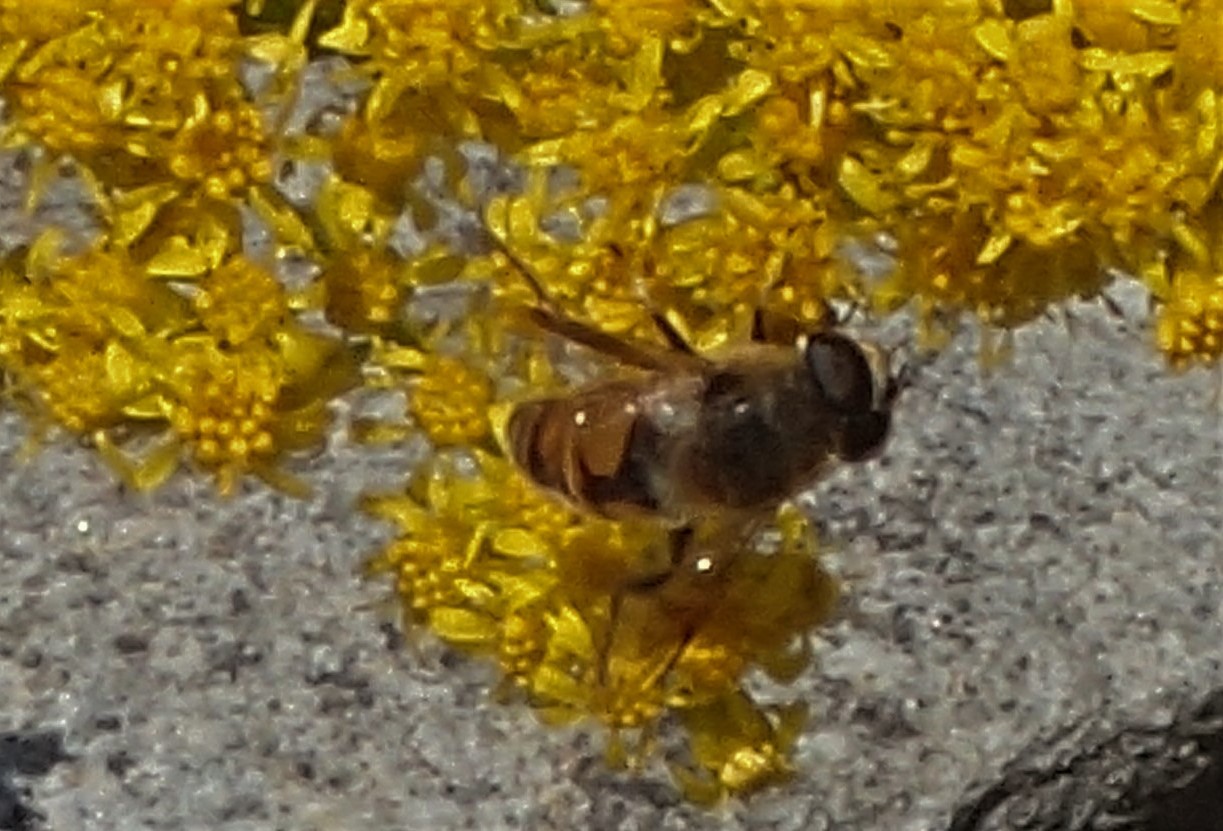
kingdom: Animalia
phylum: Arthropoda
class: Insecta
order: Diptera
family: Syrphidae
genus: Eristalis
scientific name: Eristalis tenax
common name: Drone fly
